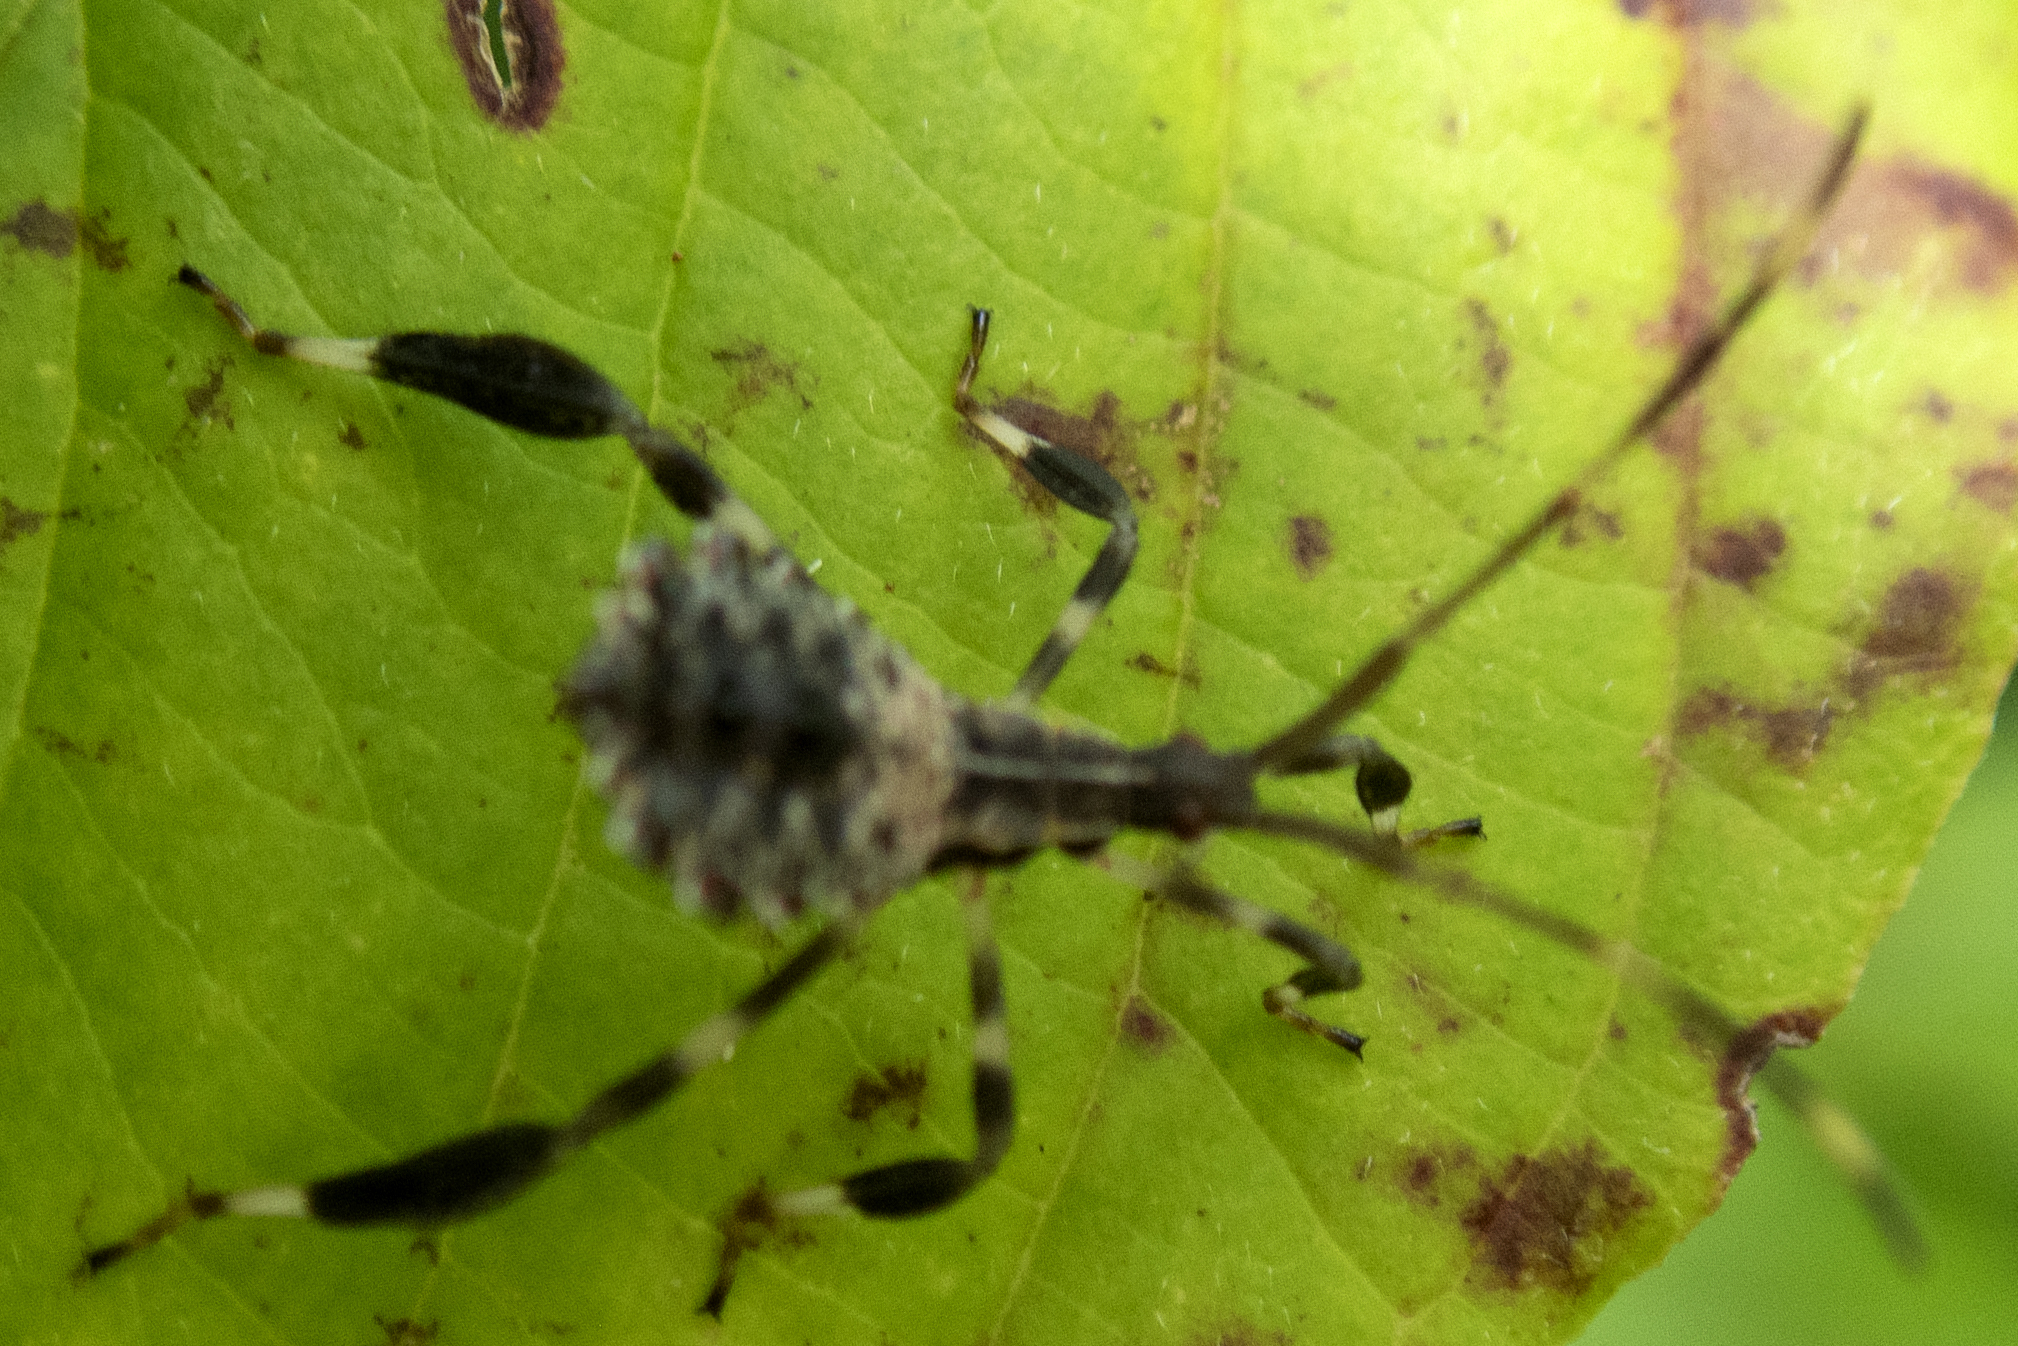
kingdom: Animalia
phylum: Arthropoda
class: Insecta
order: Hemiptera
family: Coreidae
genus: Acanthocephala
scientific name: Acanthocephala terminalis
